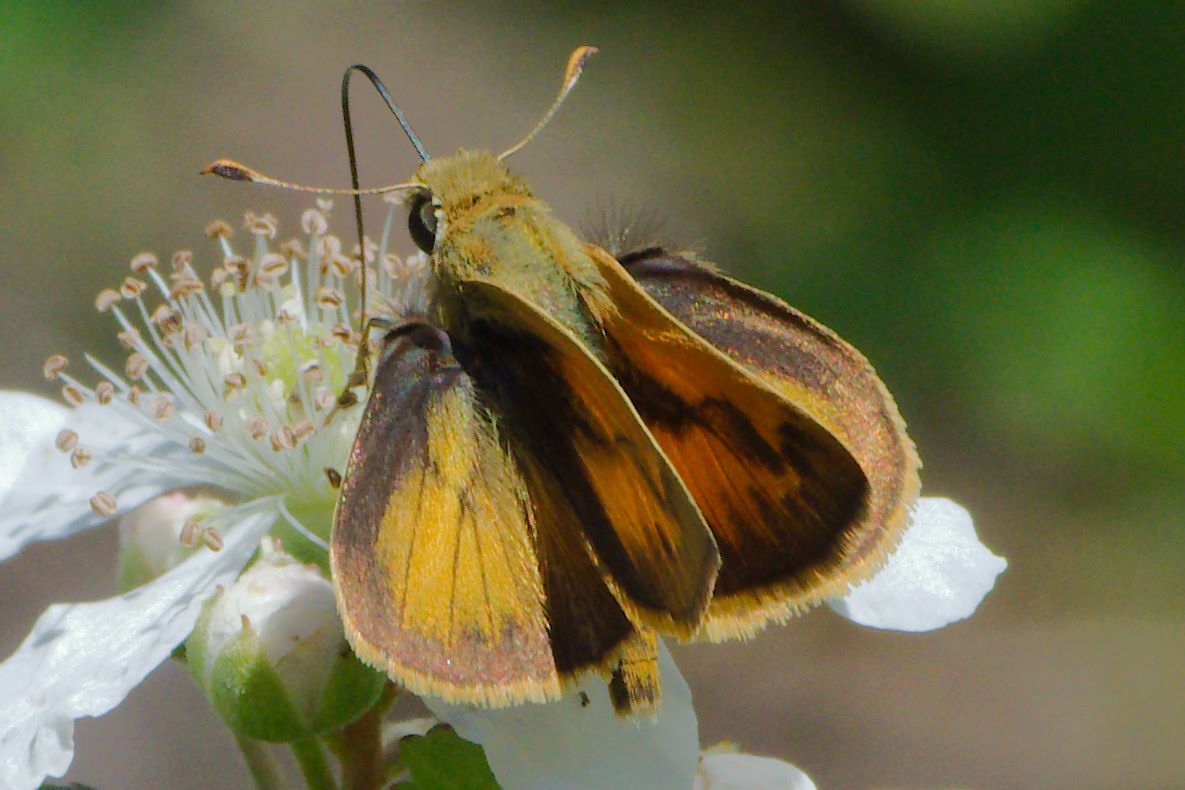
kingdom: Animalia
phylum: Arthropoda
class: Insecta
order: Lepidoptera
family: Hesperiidae
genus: Polites
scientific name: Polites vibex
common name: Whirlabout
